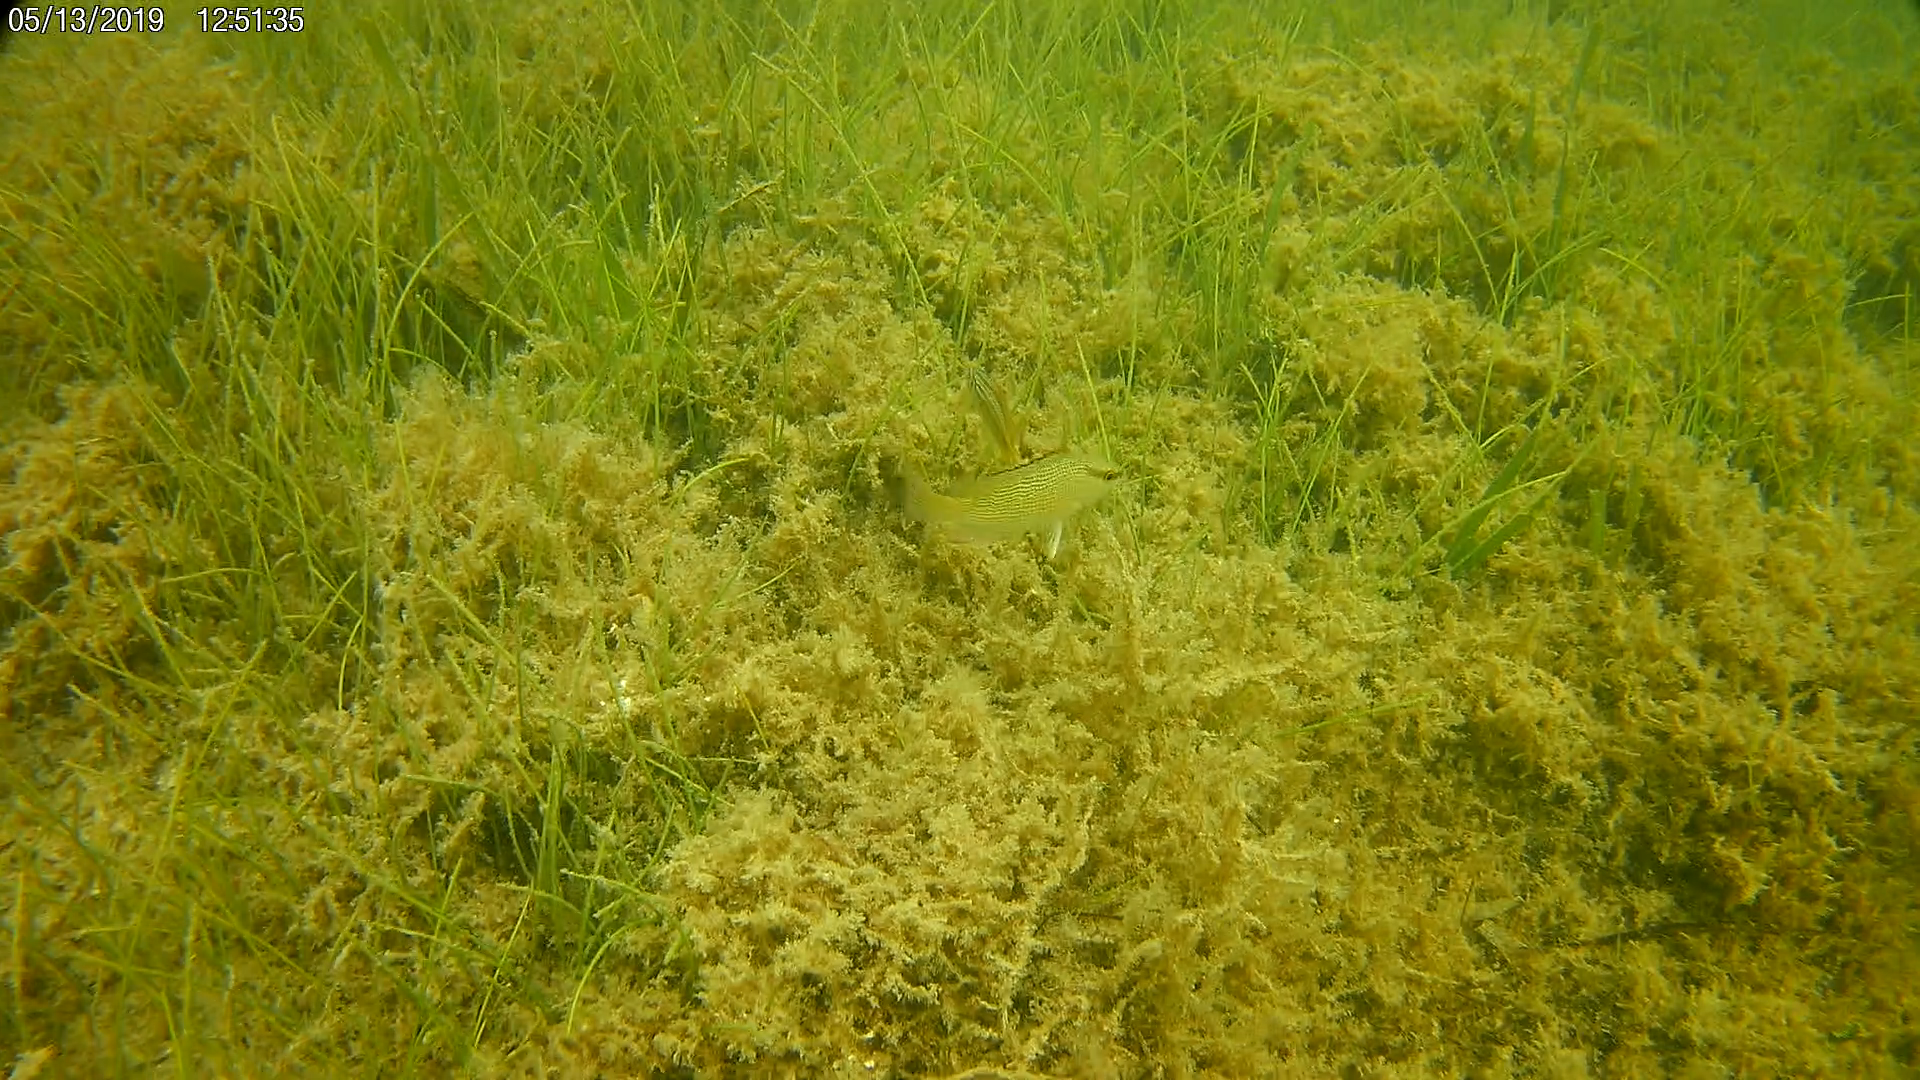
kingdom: Animalia
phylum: Chordata
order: Perciformes
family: Lutjanidae
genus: Lutjanus
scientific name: Lutjanus griseus
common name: Gray snapper
